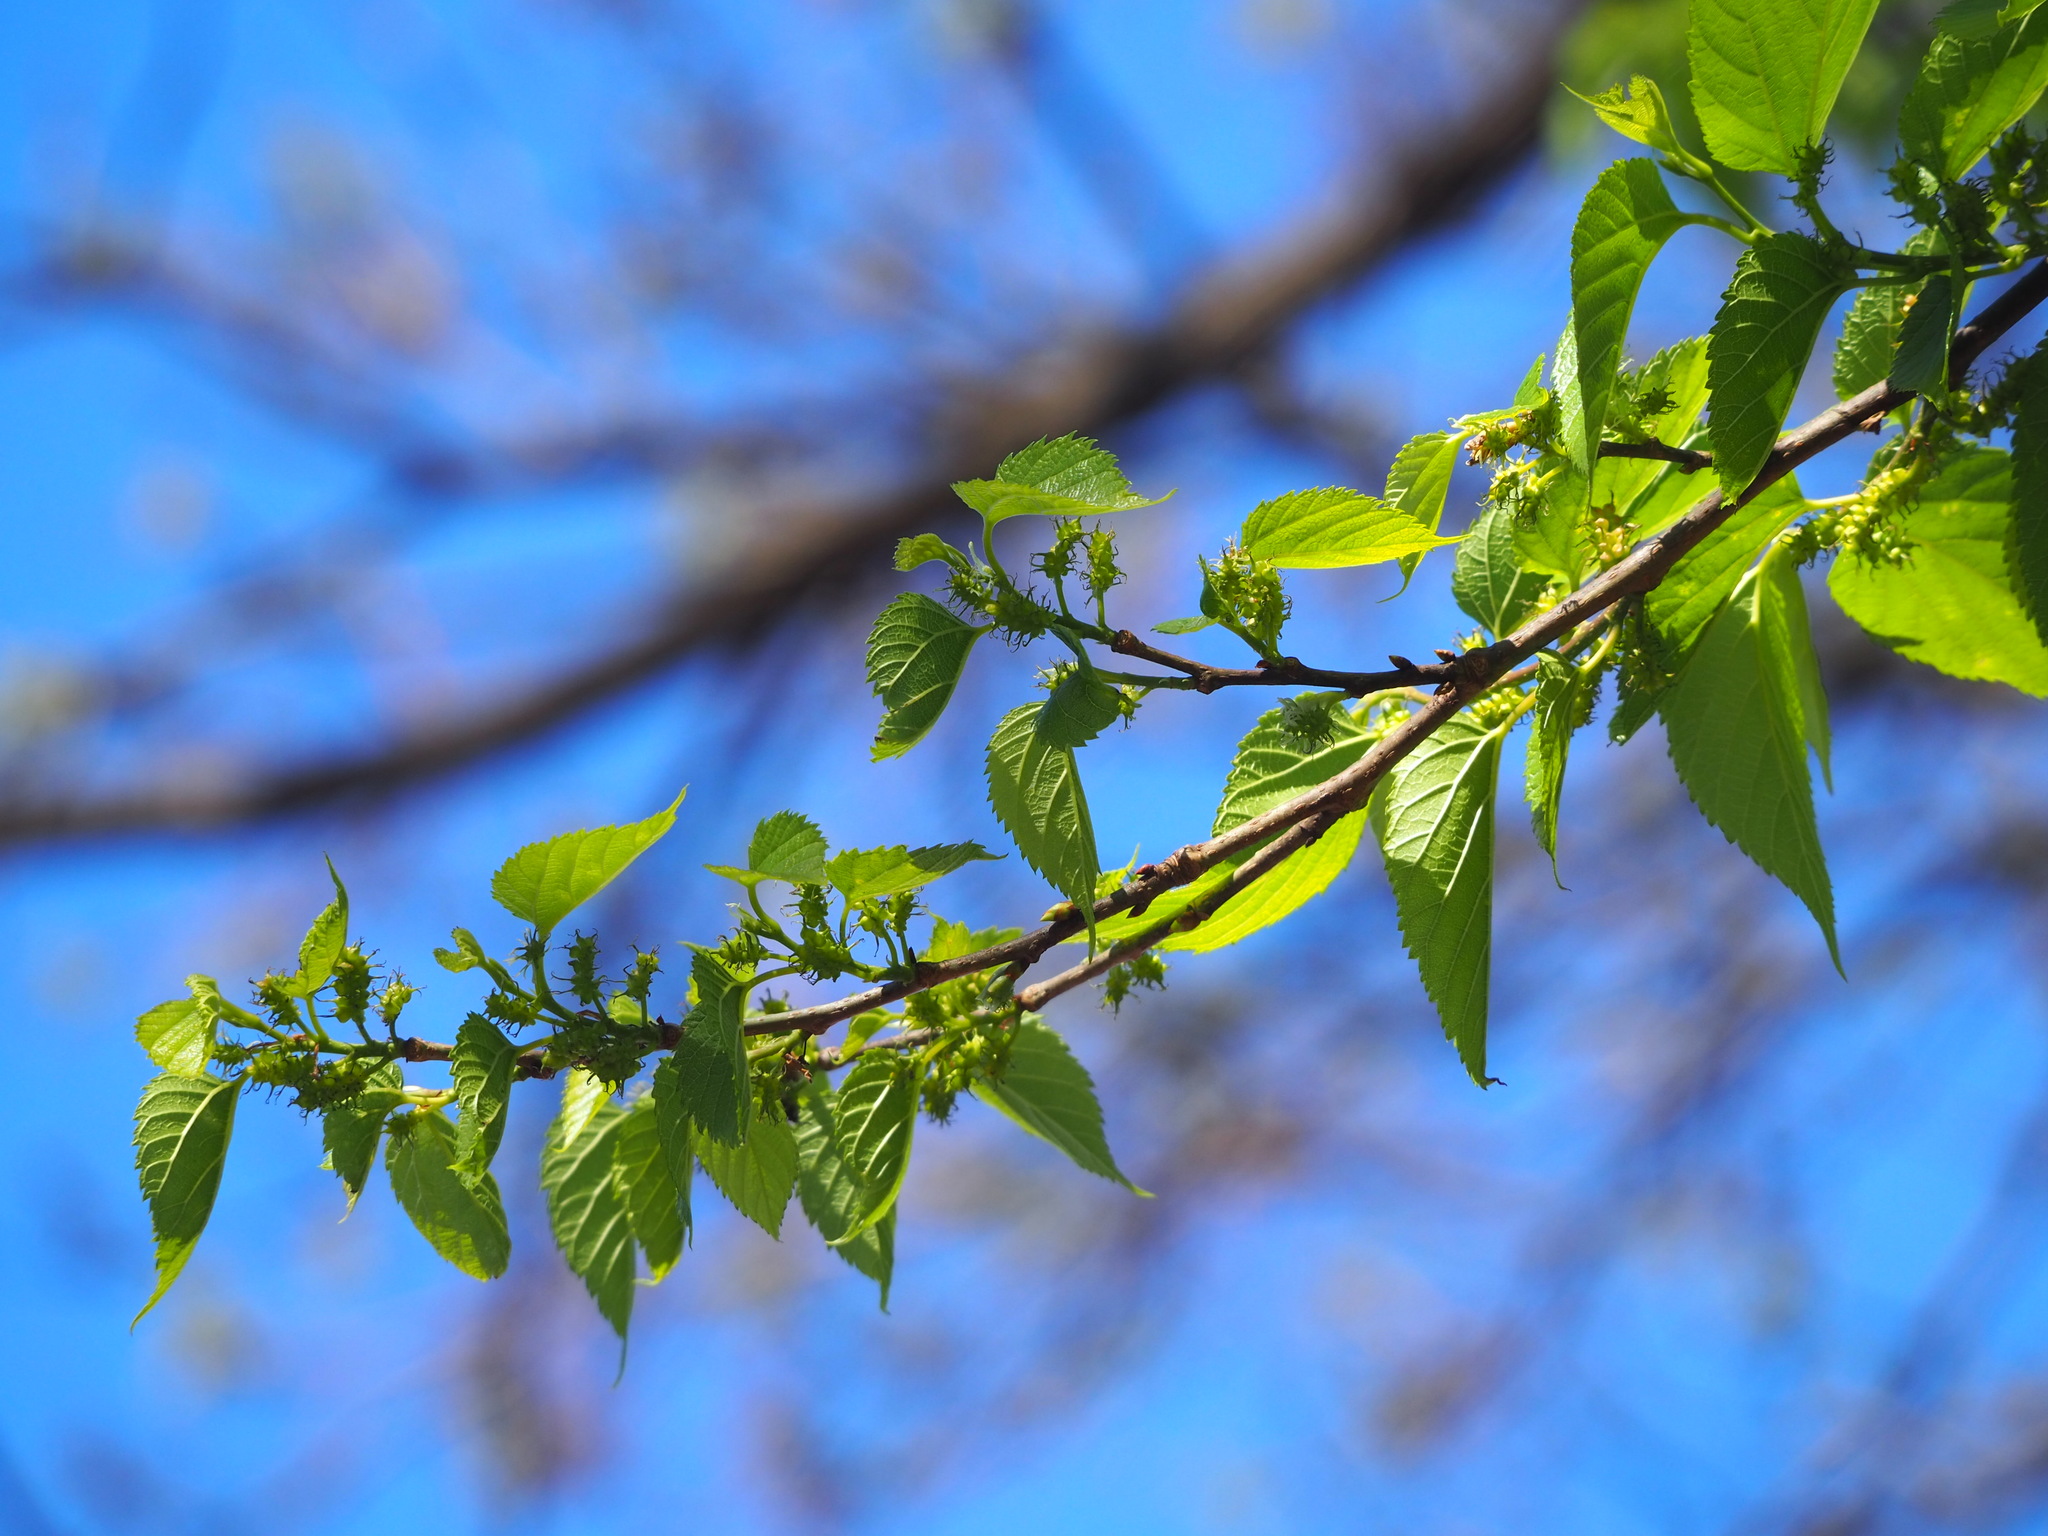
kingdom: Plantae
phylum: Tracheophyta
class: Magnoliopsida
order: Rosales
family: Moraceae
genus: Morus
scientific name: Morus indica
